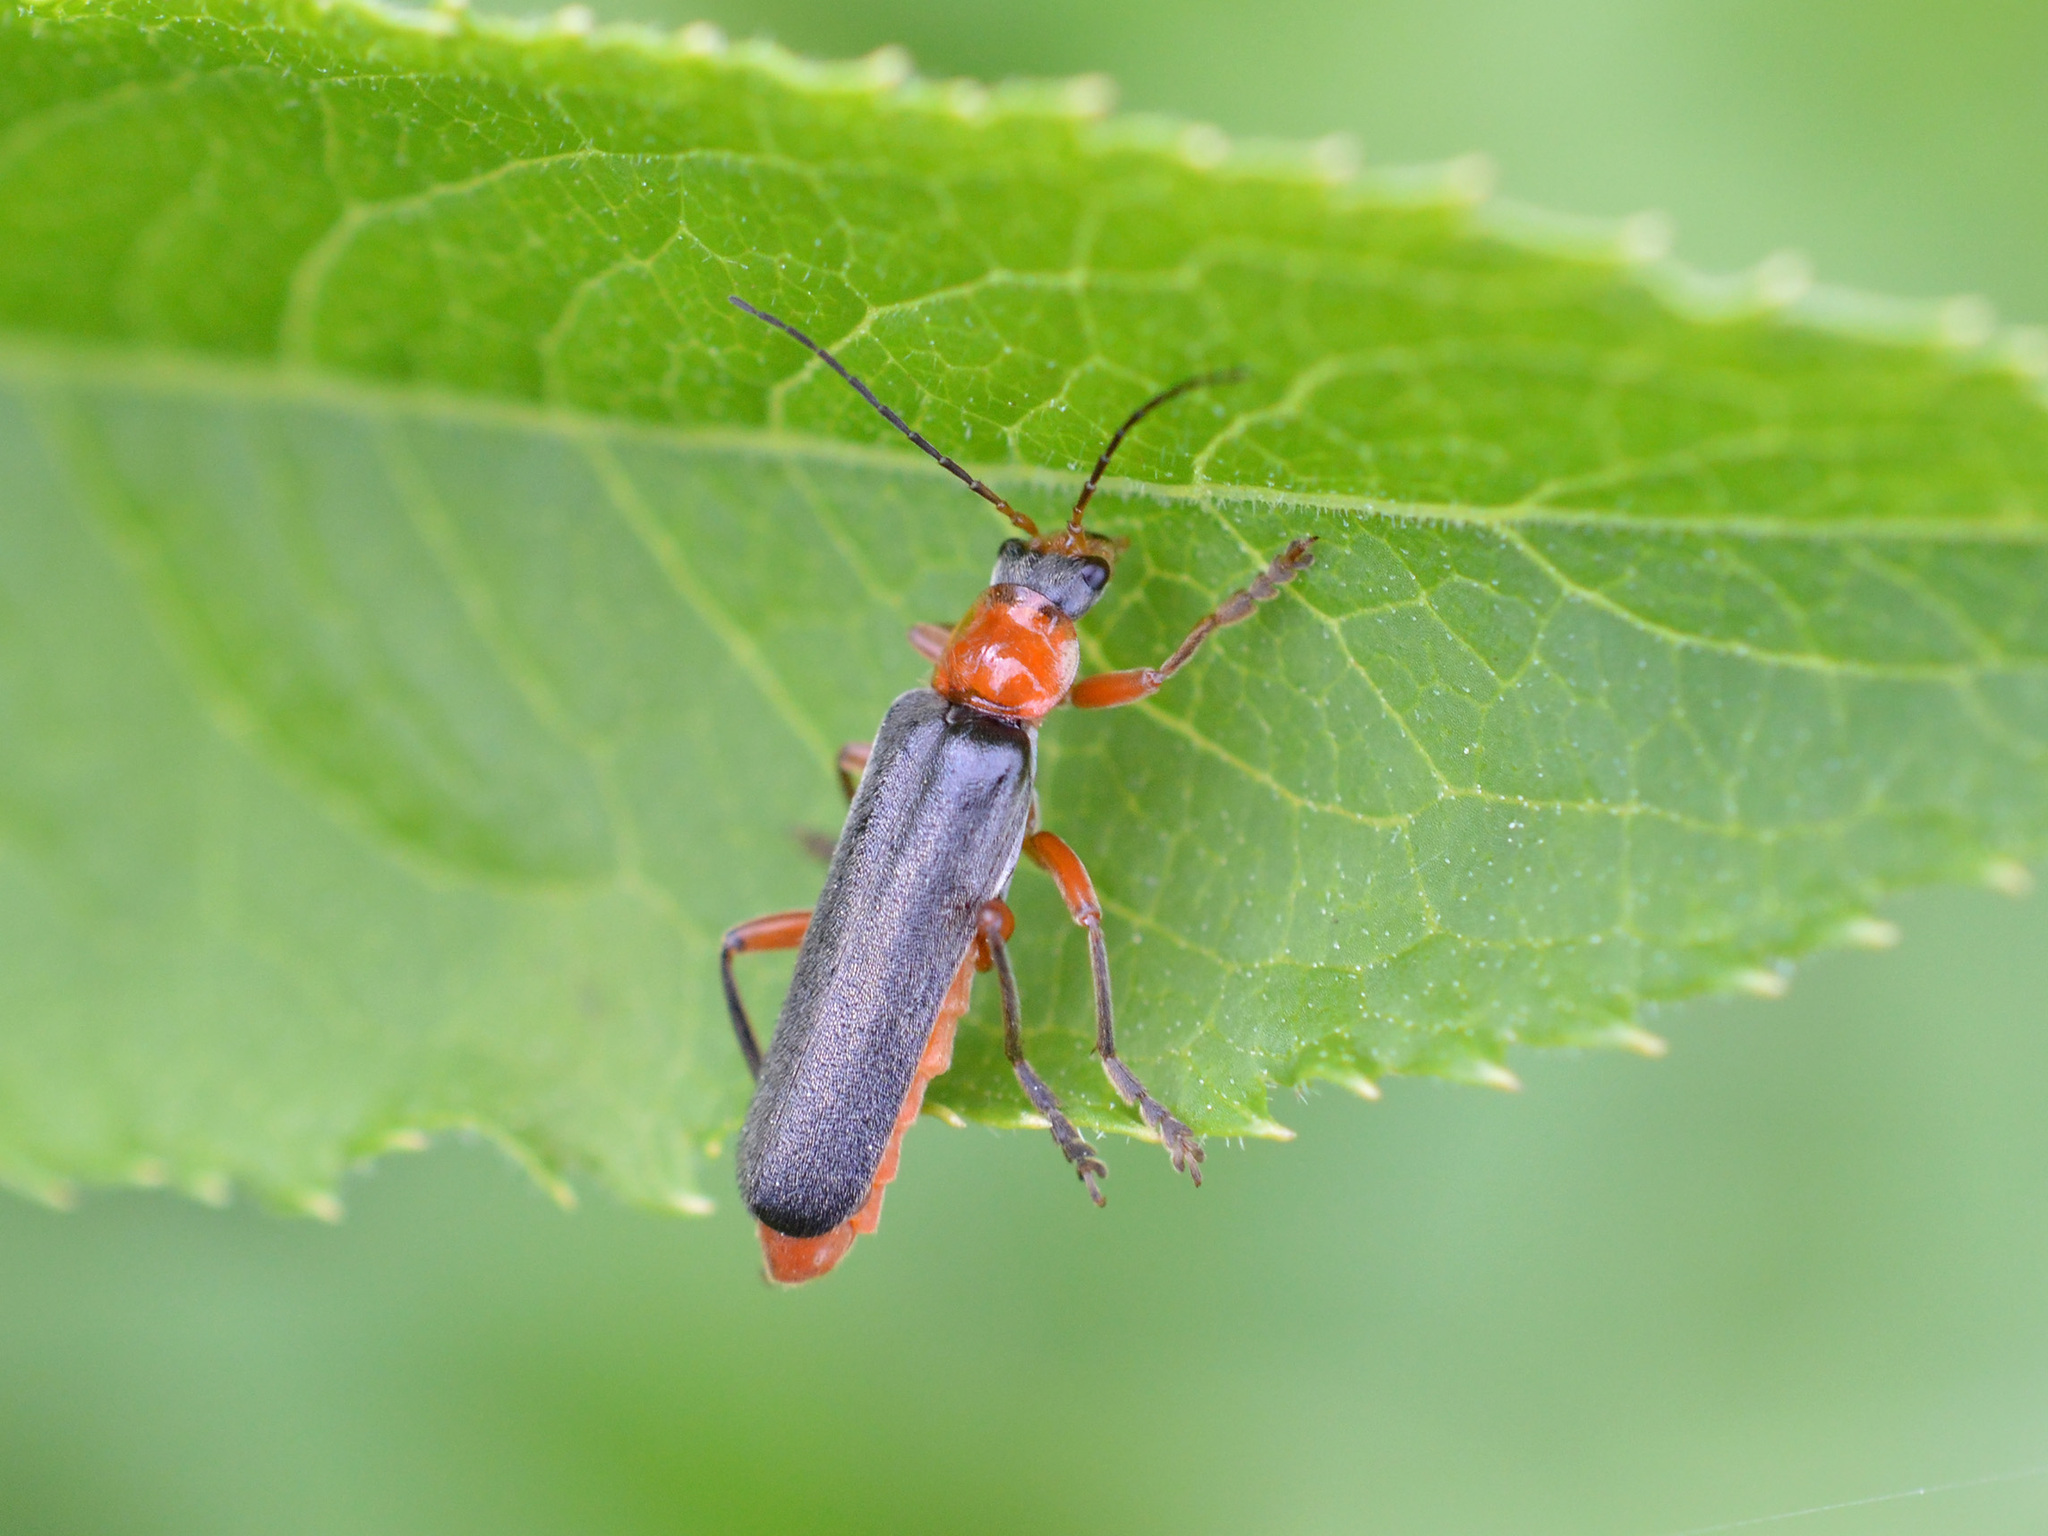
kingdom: Animalia
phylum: Arthropoda
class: Insecta
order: Coleoptera
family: Cantharidae
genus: Cantharis
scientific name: Cantharis pellucida
